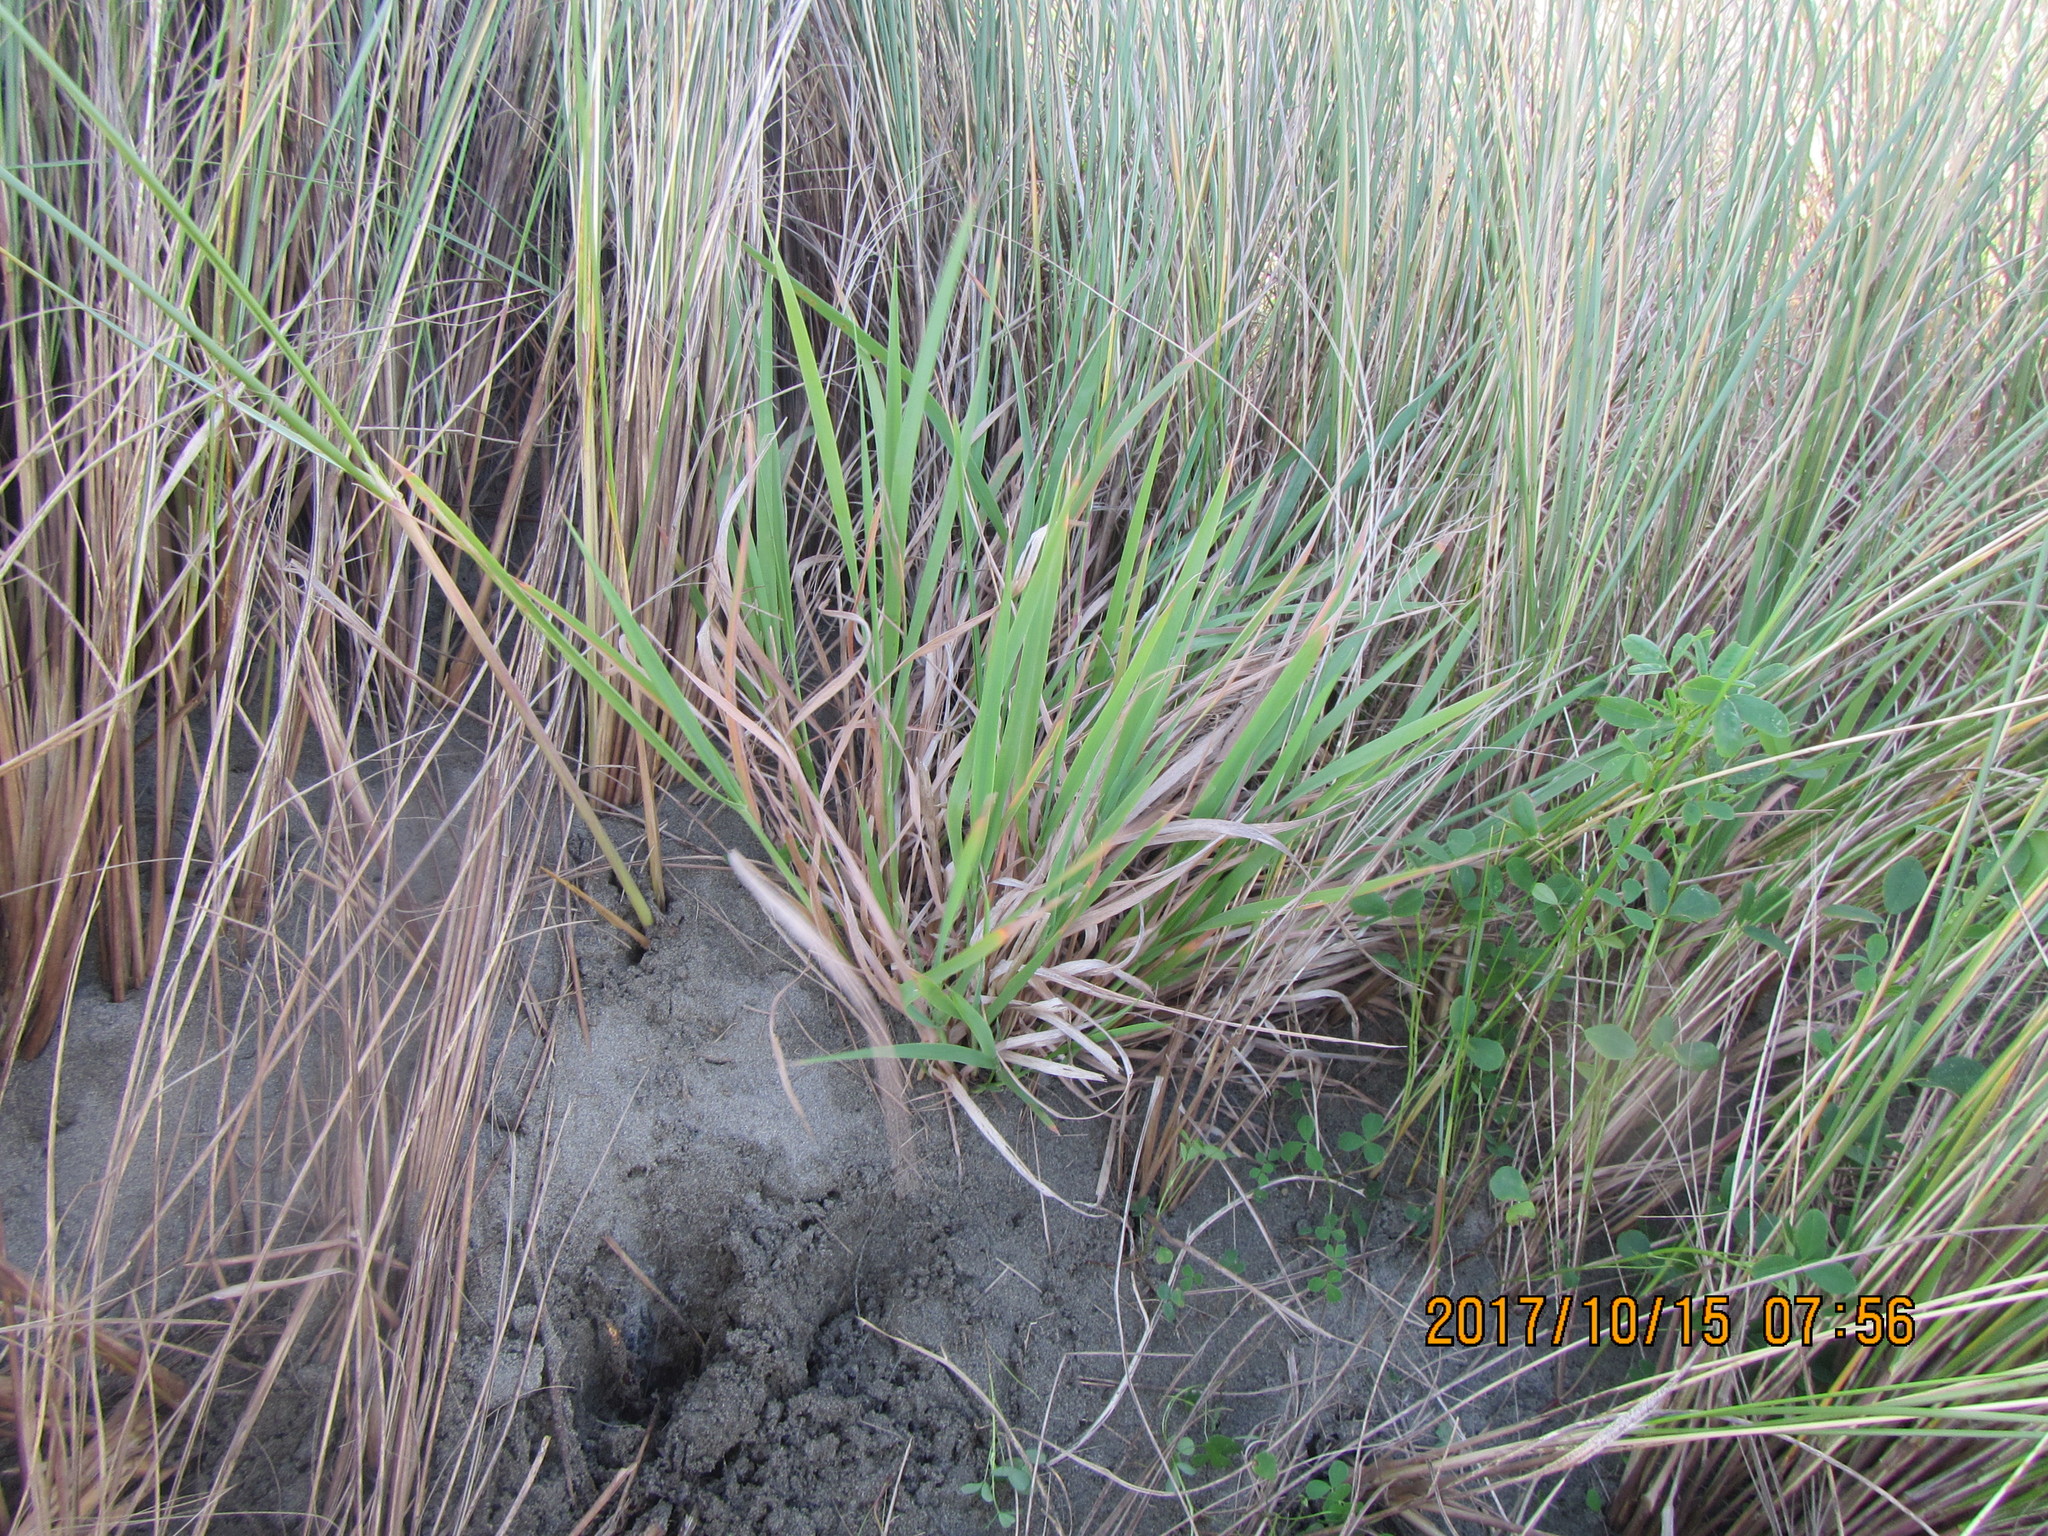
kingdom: Plantae
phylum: Tracheophyta
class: Liliopsida
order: Poales
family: Poaceae
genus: Lachnagrostis
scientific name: Lachnagrostis billardierei
